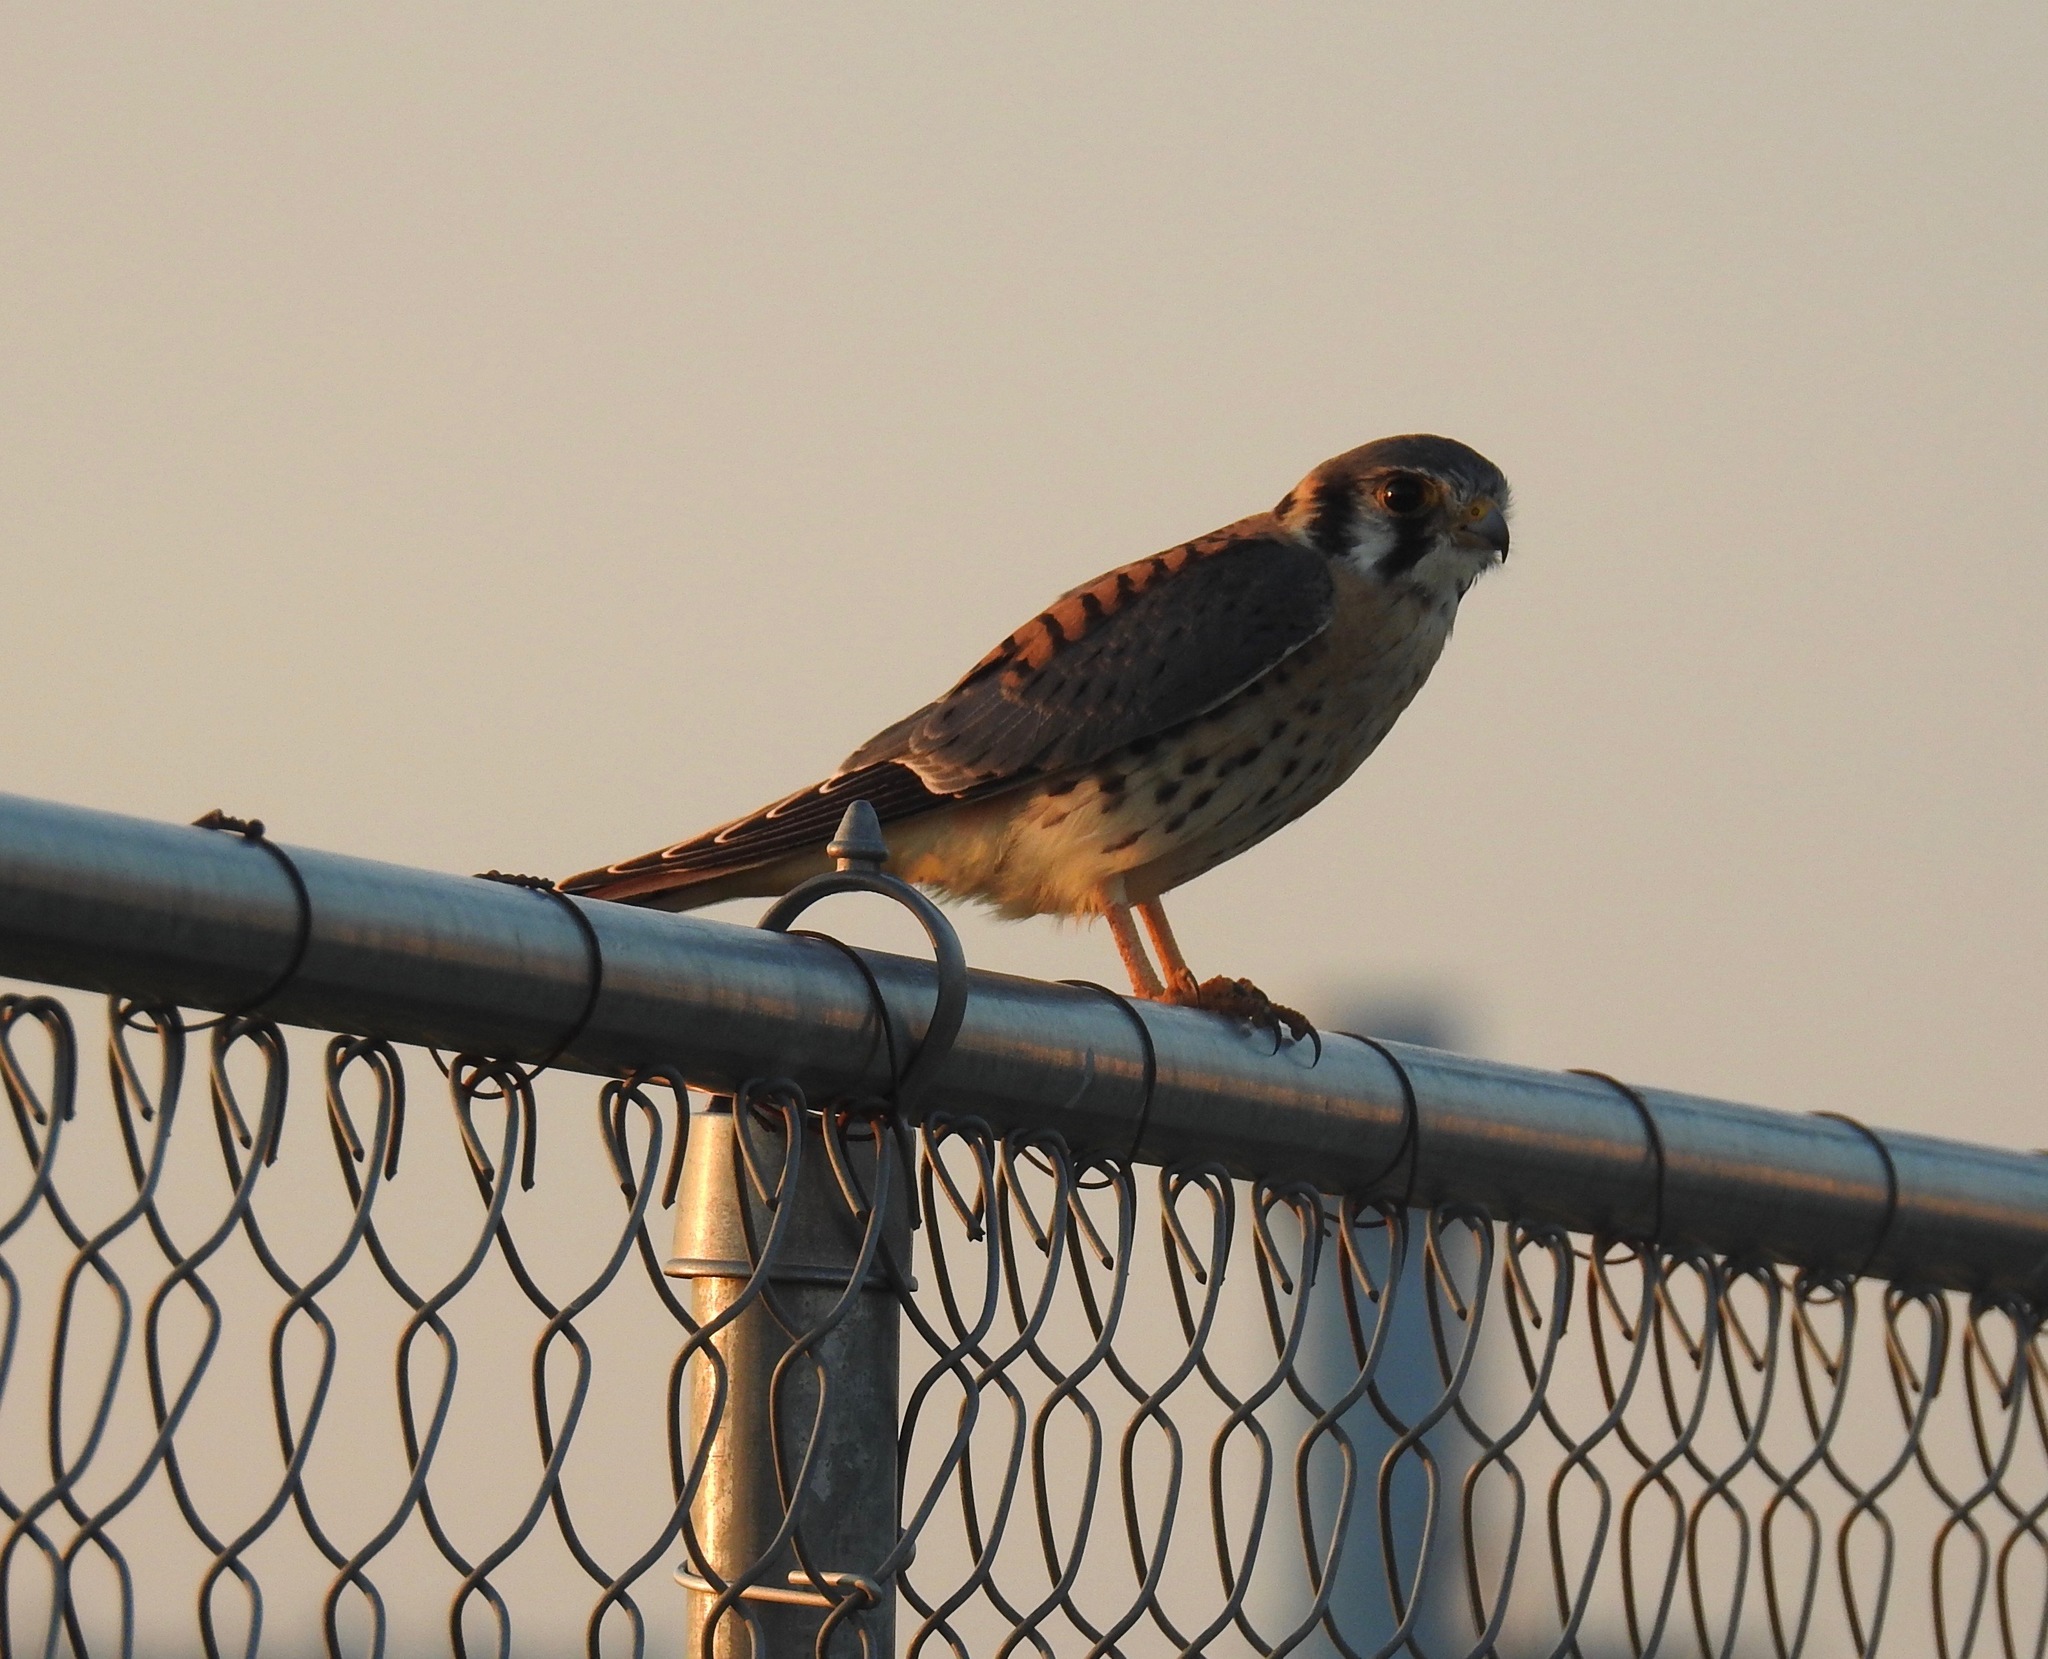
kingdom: Animalia
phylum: Chordata
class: Aves
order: Falconiformes
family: Falconidae
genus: Falco
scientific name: Falco sparverius
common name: American kestrel
